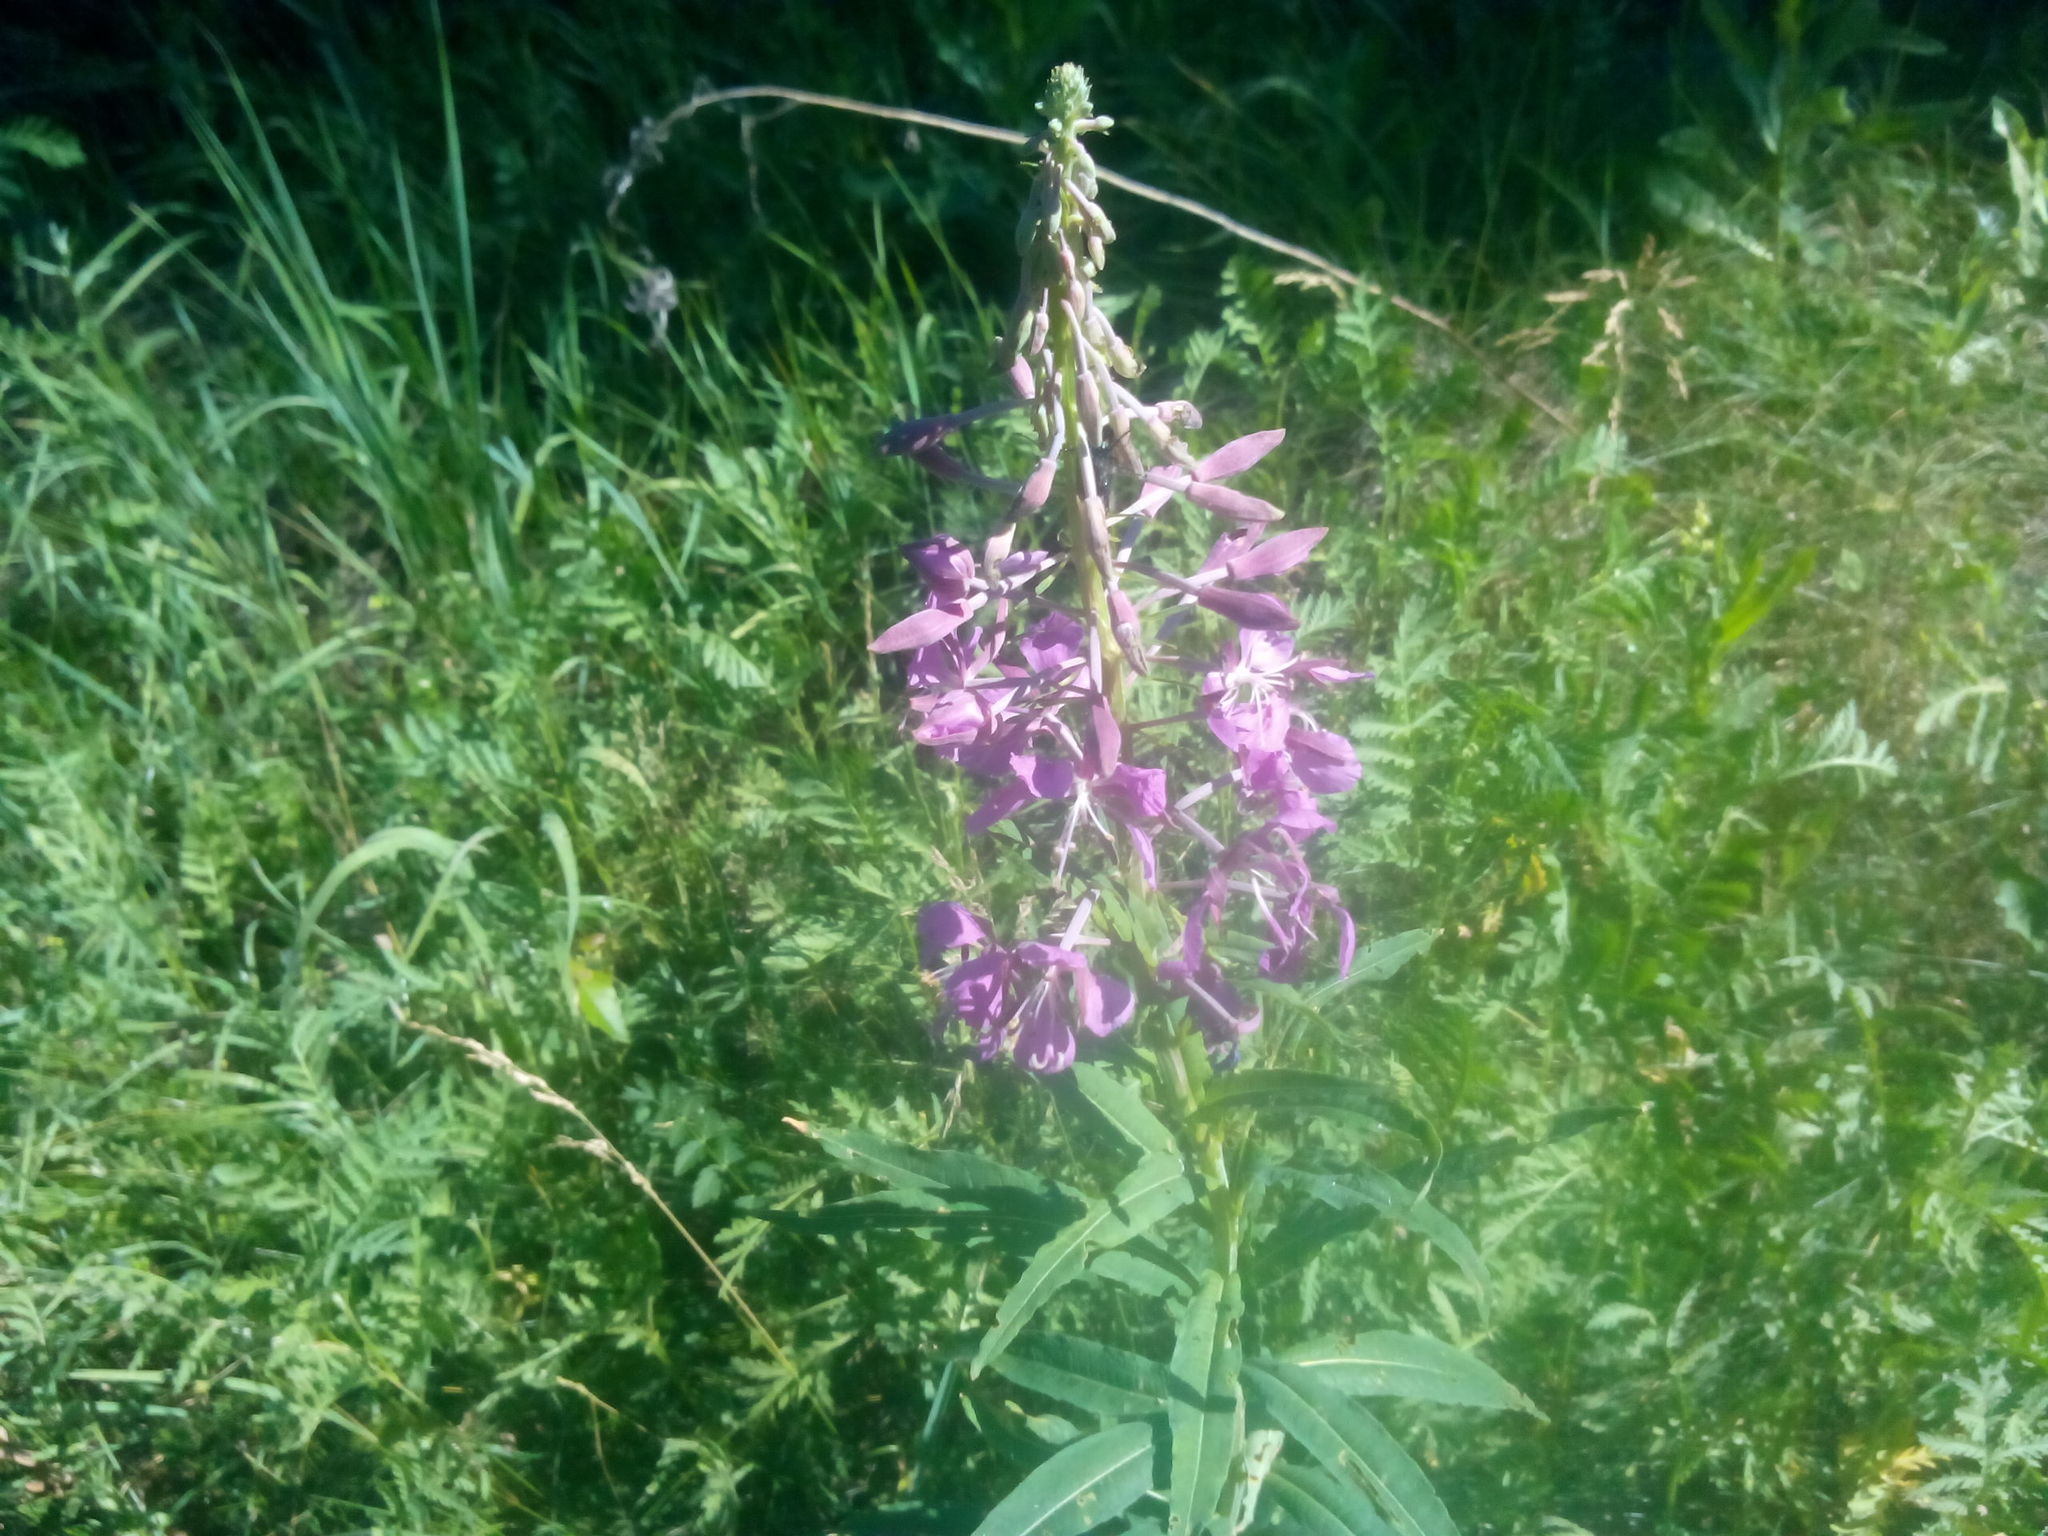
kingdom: Plantae
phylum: Tracheophyta
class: Magnoliopsida
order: Myrtales
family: Onagraceae
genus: Chamaenerion
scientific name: Chamaenerion angustifolium
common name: Fireweed
